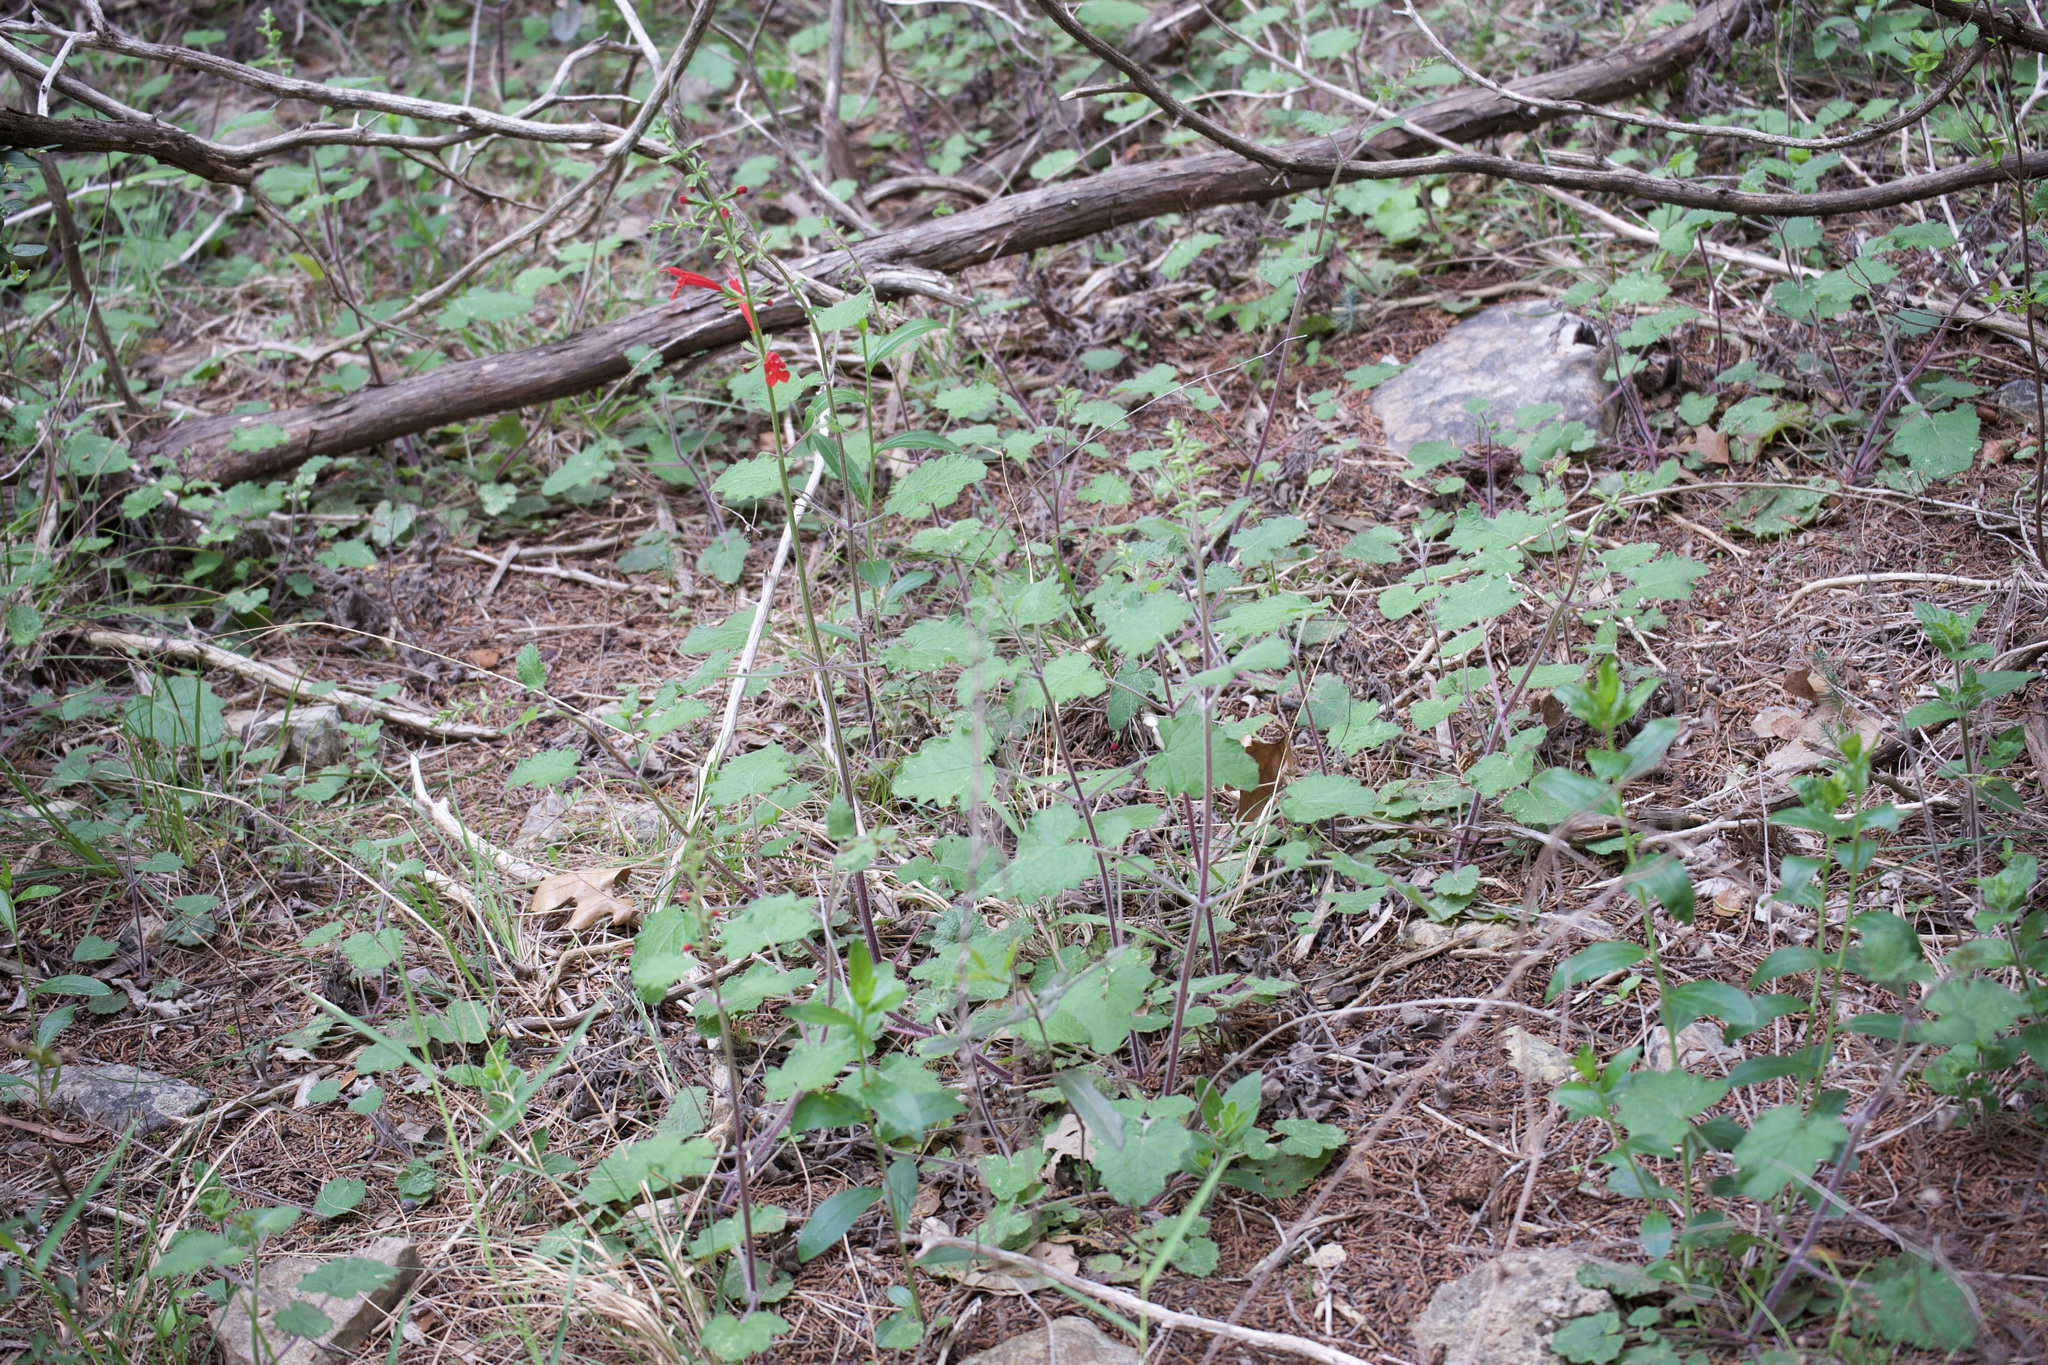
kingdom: Plantae
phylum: Tracheophyta
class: Magnoliopsida
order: Lamiales
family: Lamiaceae
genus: Salvia
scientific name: Salvia roemeriana
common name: Cedar sage
